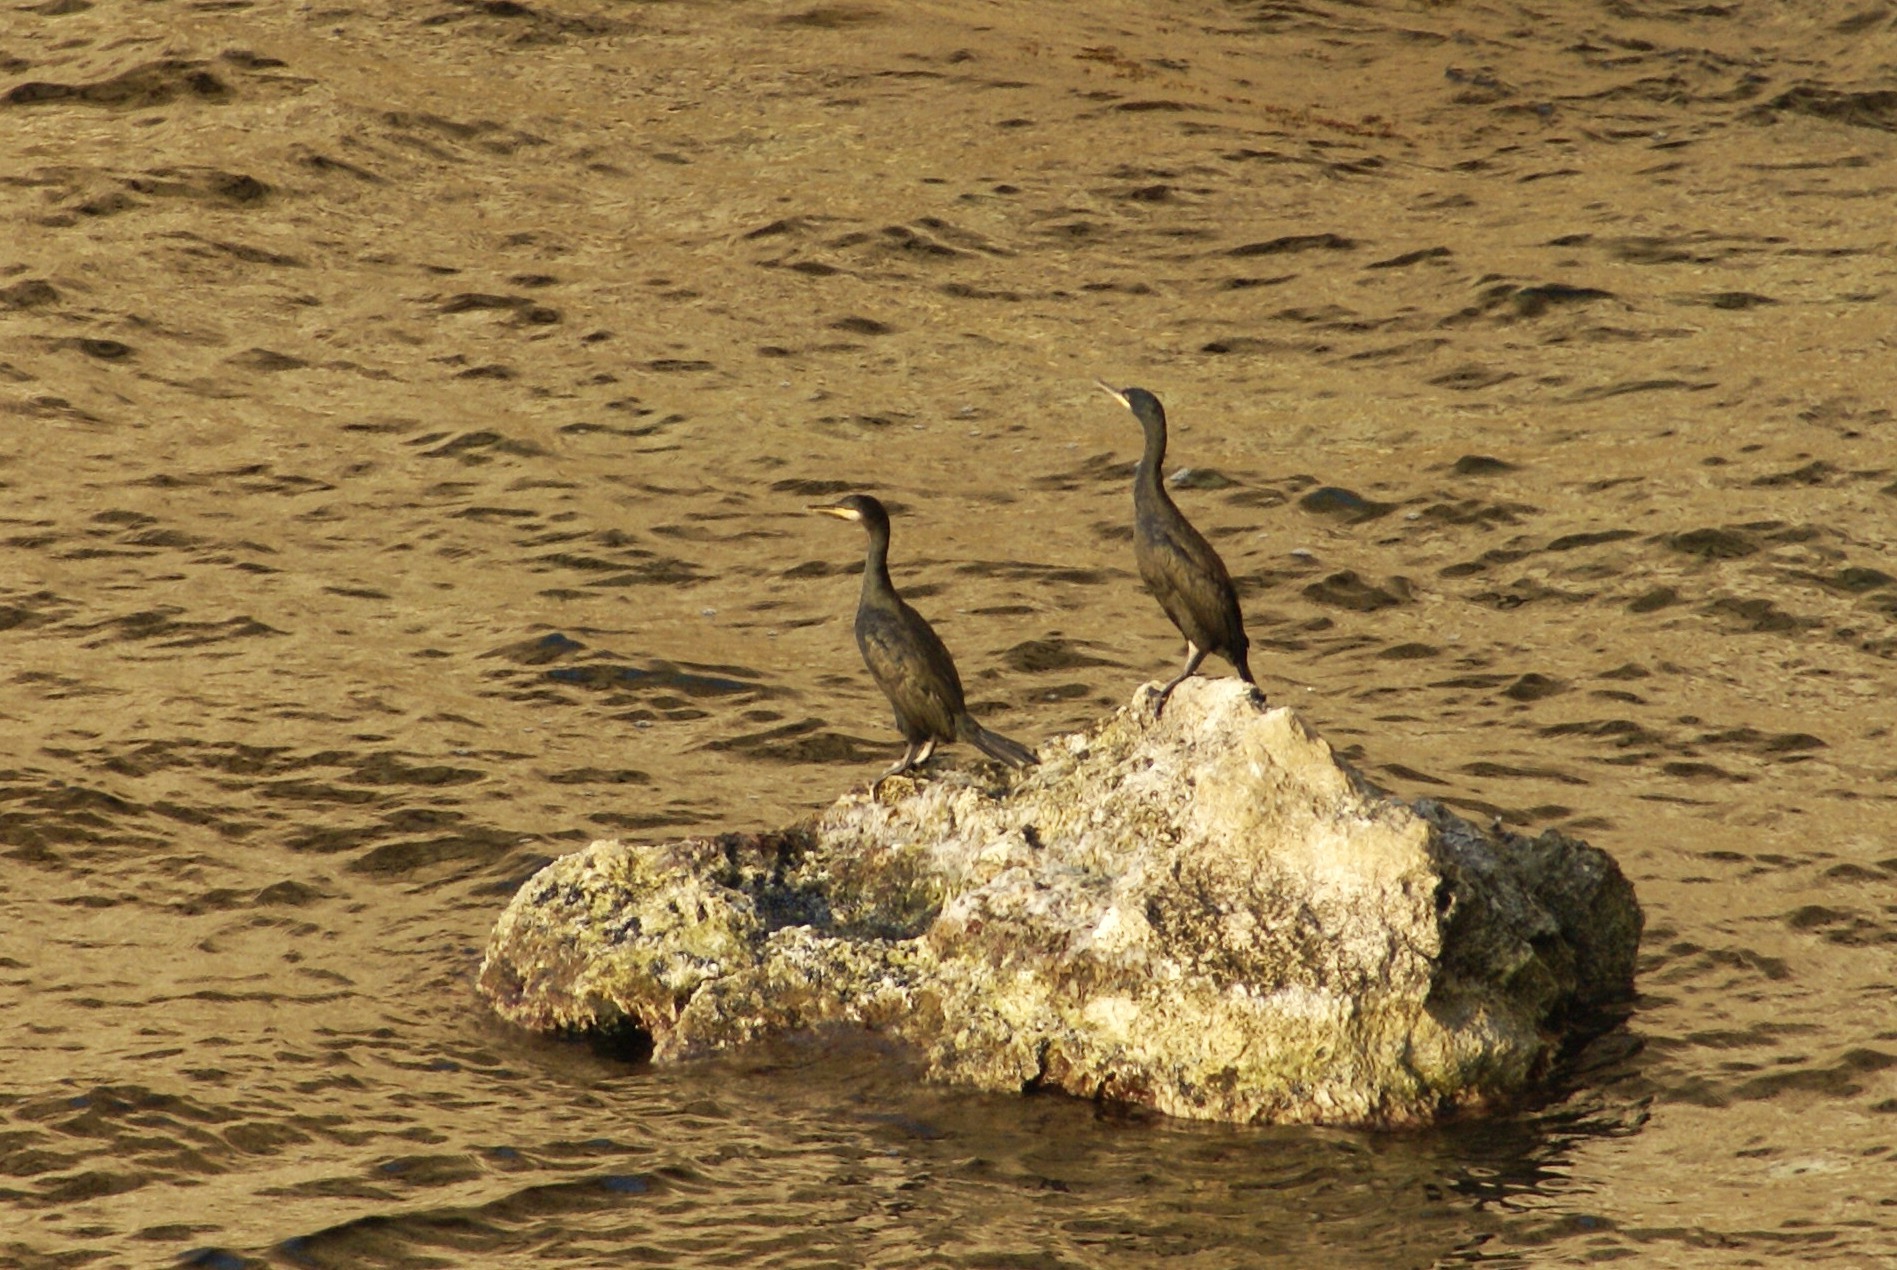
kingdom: Animalia
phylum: Chordata
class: Aves
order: Suliformes
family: Phalacrocoracidae
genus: Phalacrocorax
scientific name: Phalacrocorax aristotelis
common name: European shag
